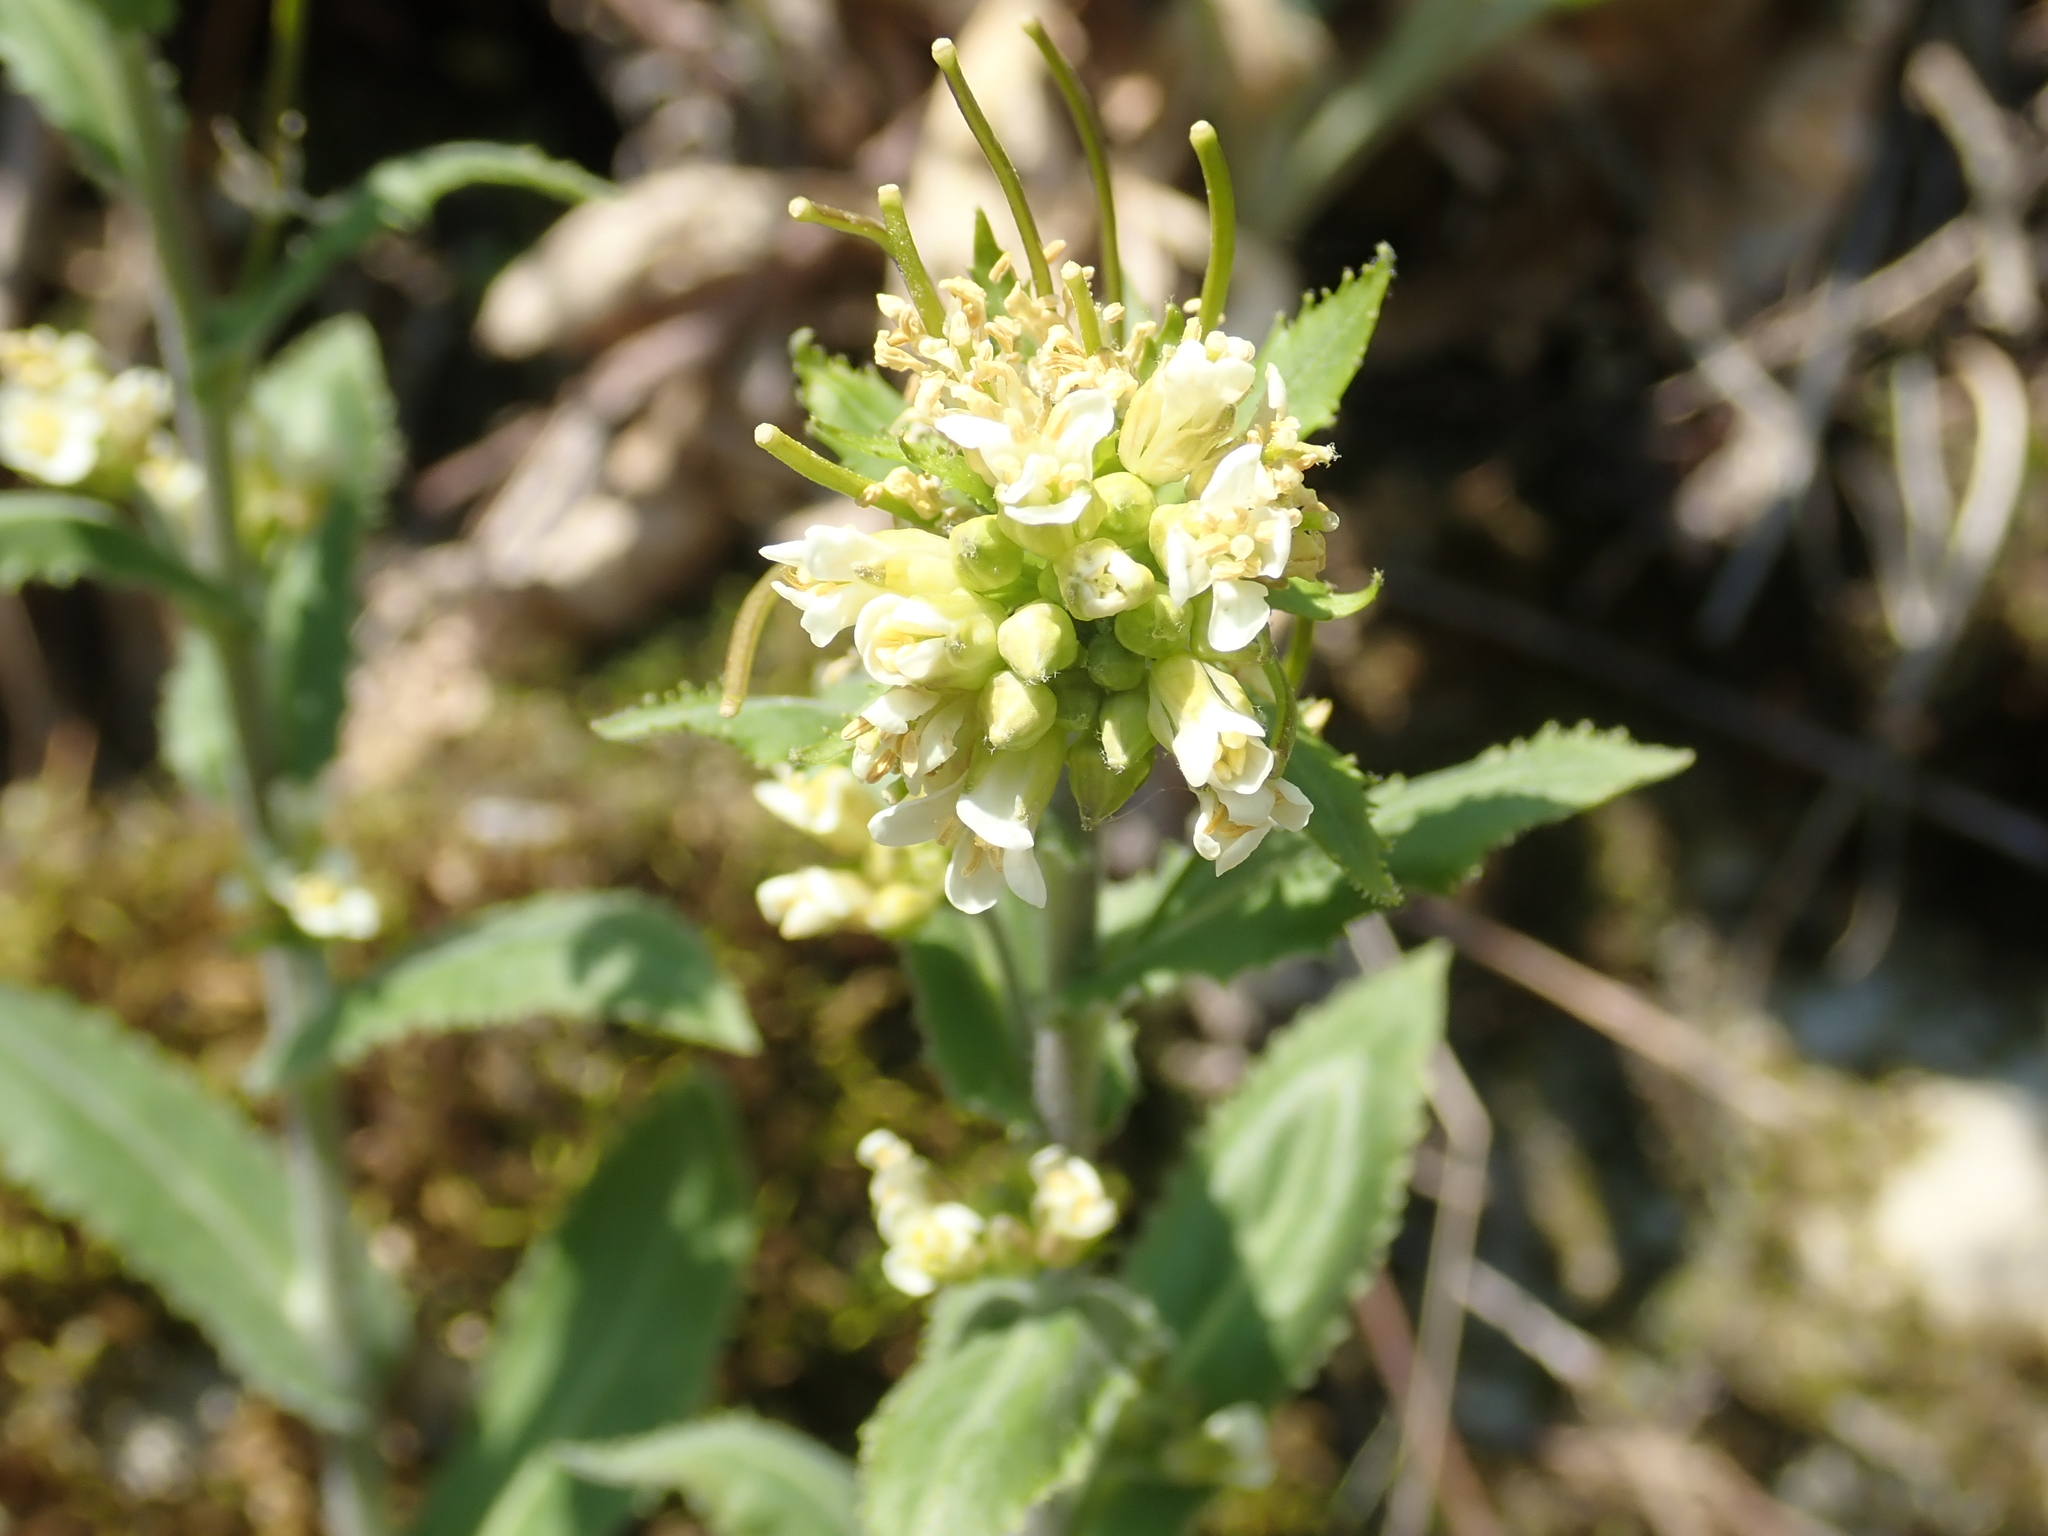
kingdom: Plantae
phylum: Tracheophyta
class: Magnoliopsida
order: Brassicales
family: Brassicaceae
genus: Pseudoturritis
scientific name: Pseudoturritis turrita
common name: Tower cress
